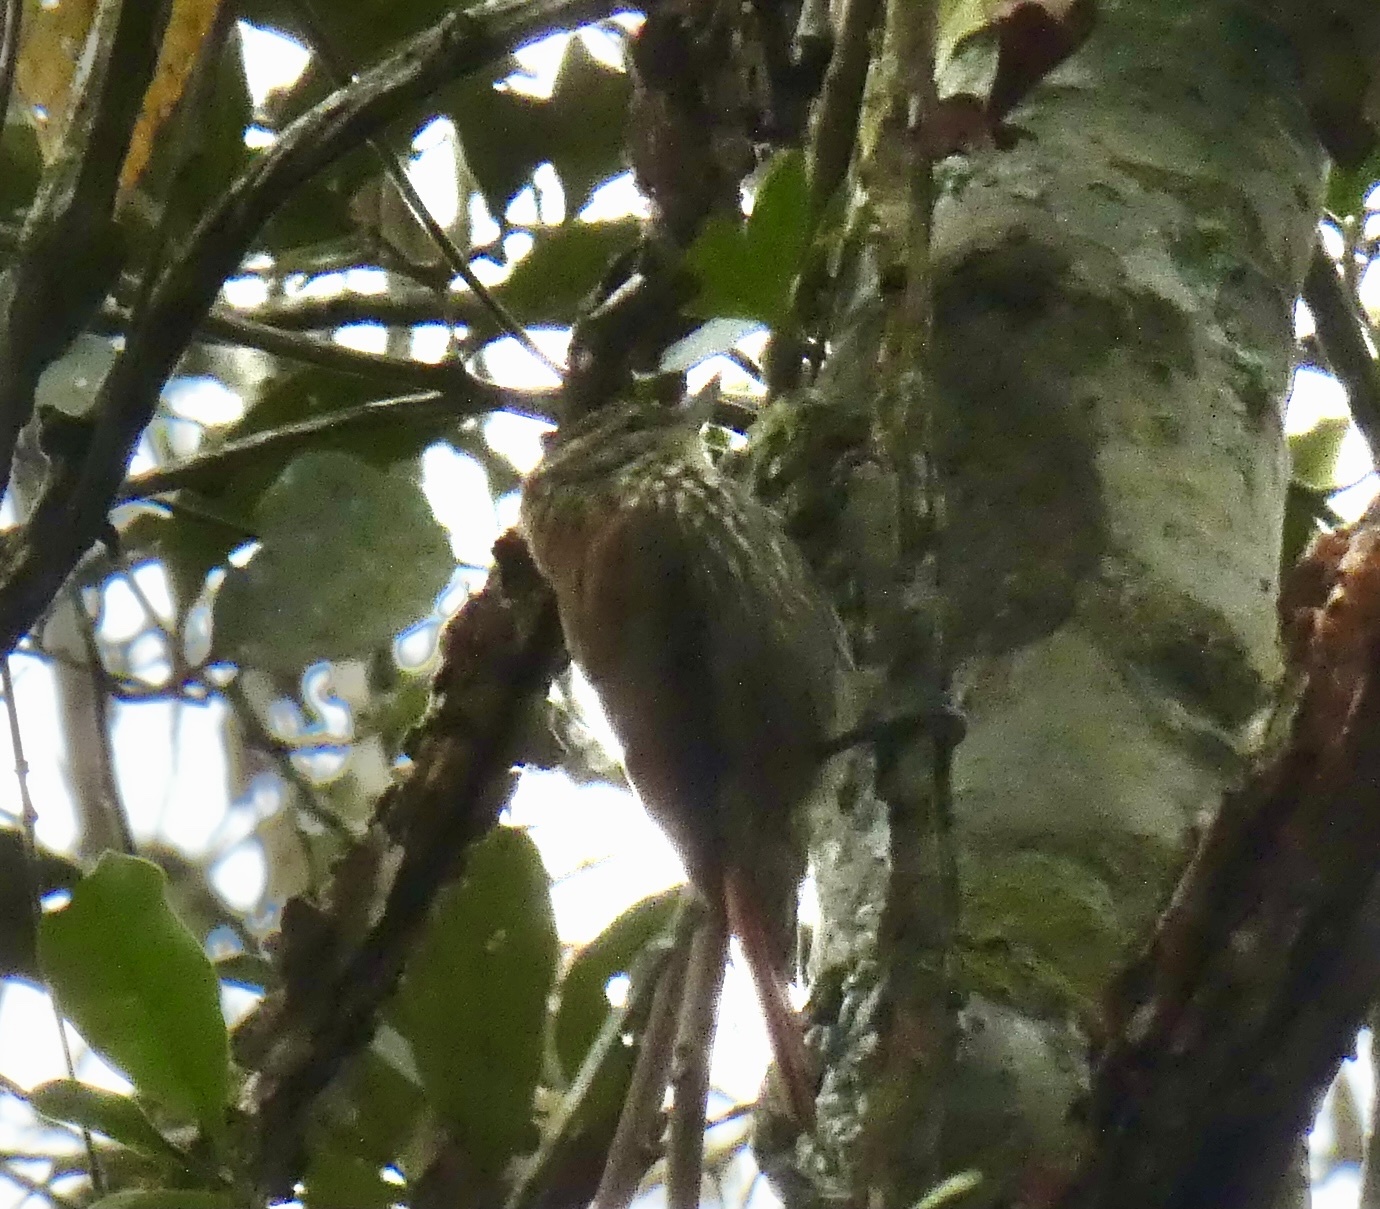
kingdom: Animalia
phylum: Chordata
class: Aves
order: Passeriformes
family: Furnariidae
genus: Xenops
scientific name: Xenops rutilans
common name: Streaked xenops
